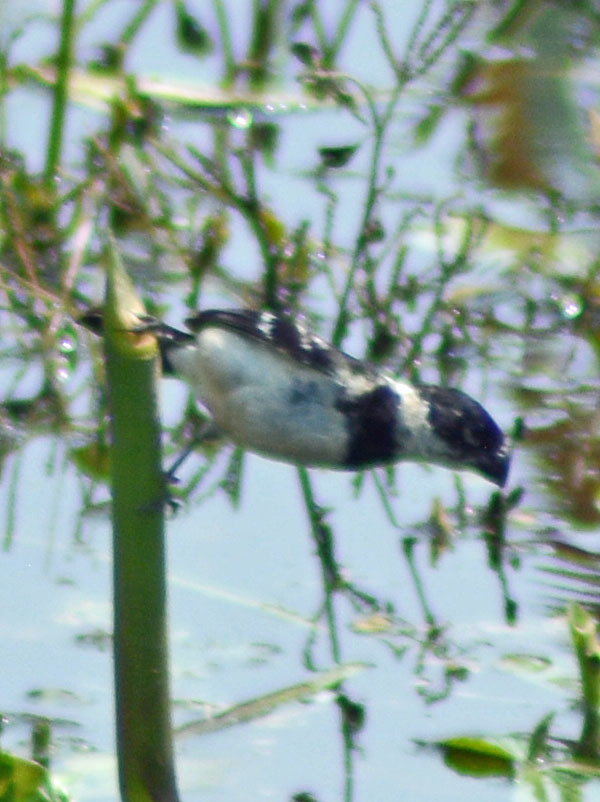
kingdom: Animalia
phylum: Chordata
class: Aves
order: Passeriformes
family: Thraupidae
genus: Sporophila
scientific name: Sporophila morelleti
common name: Morelet's seedeater
